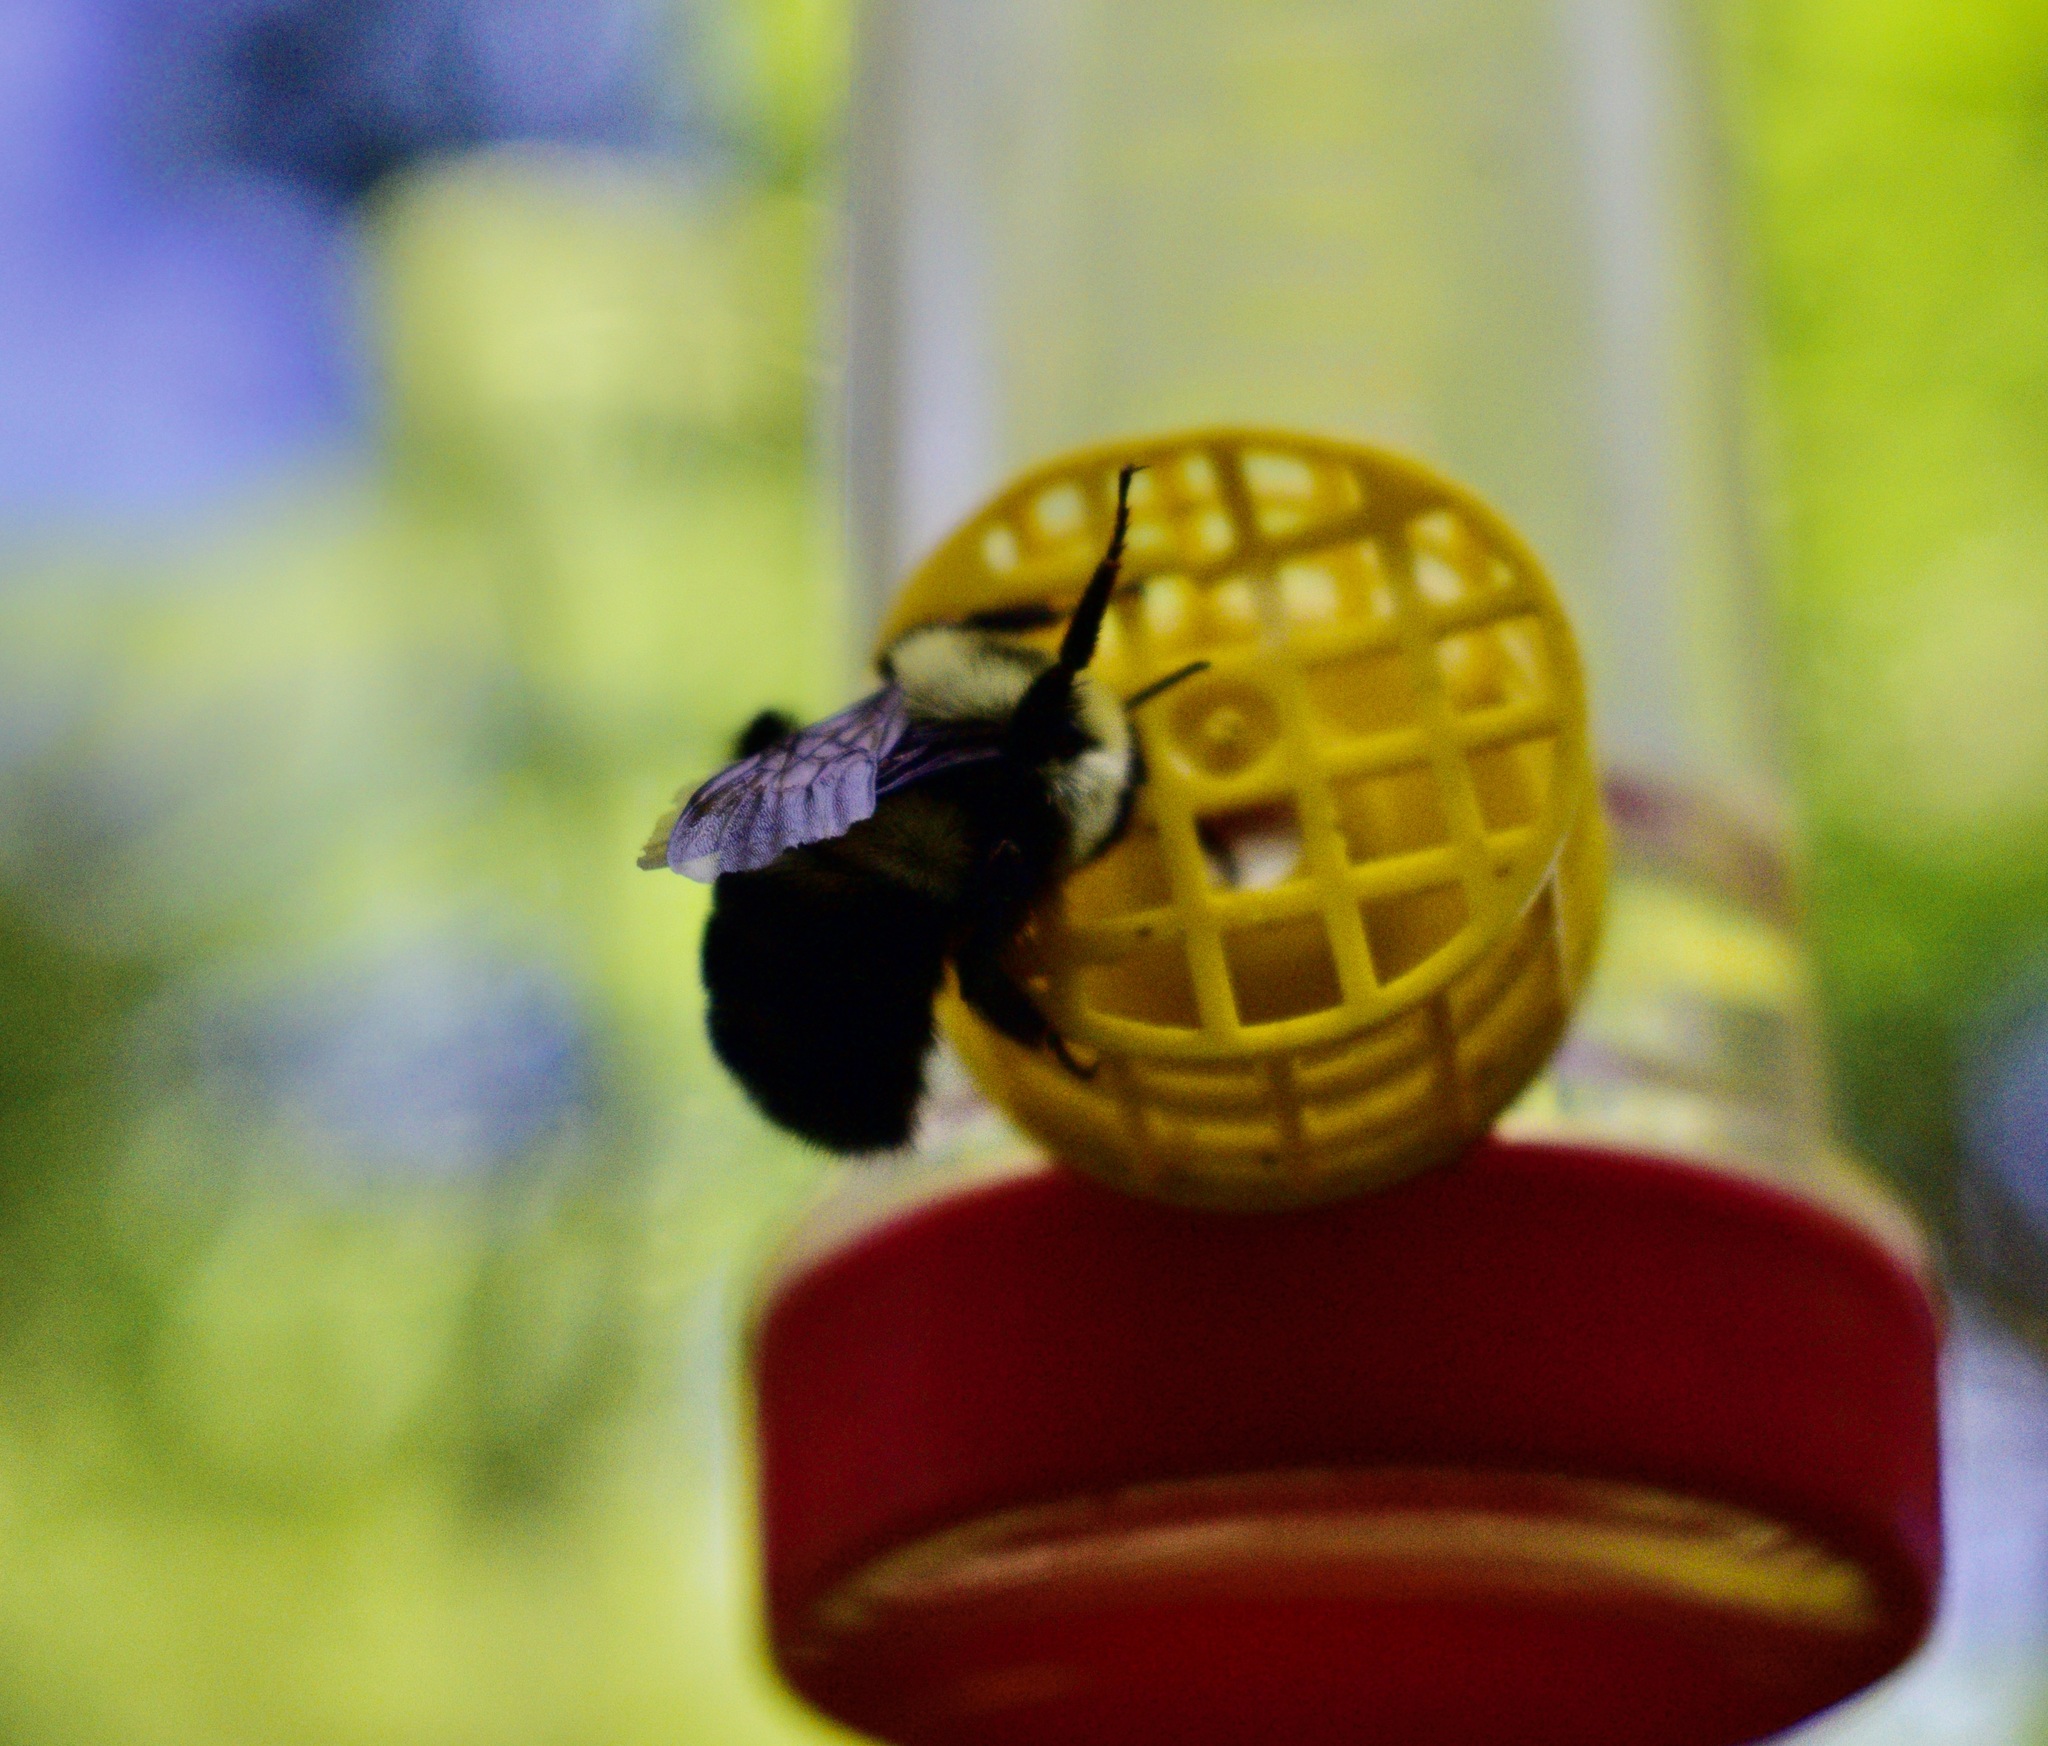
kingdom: Animalia
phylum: Arthropoda
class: Insecta
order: Hymenoptera
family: Apidae
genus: Bombus
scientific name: Bombus bimaculatus
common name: Two-spotted bumble bee
